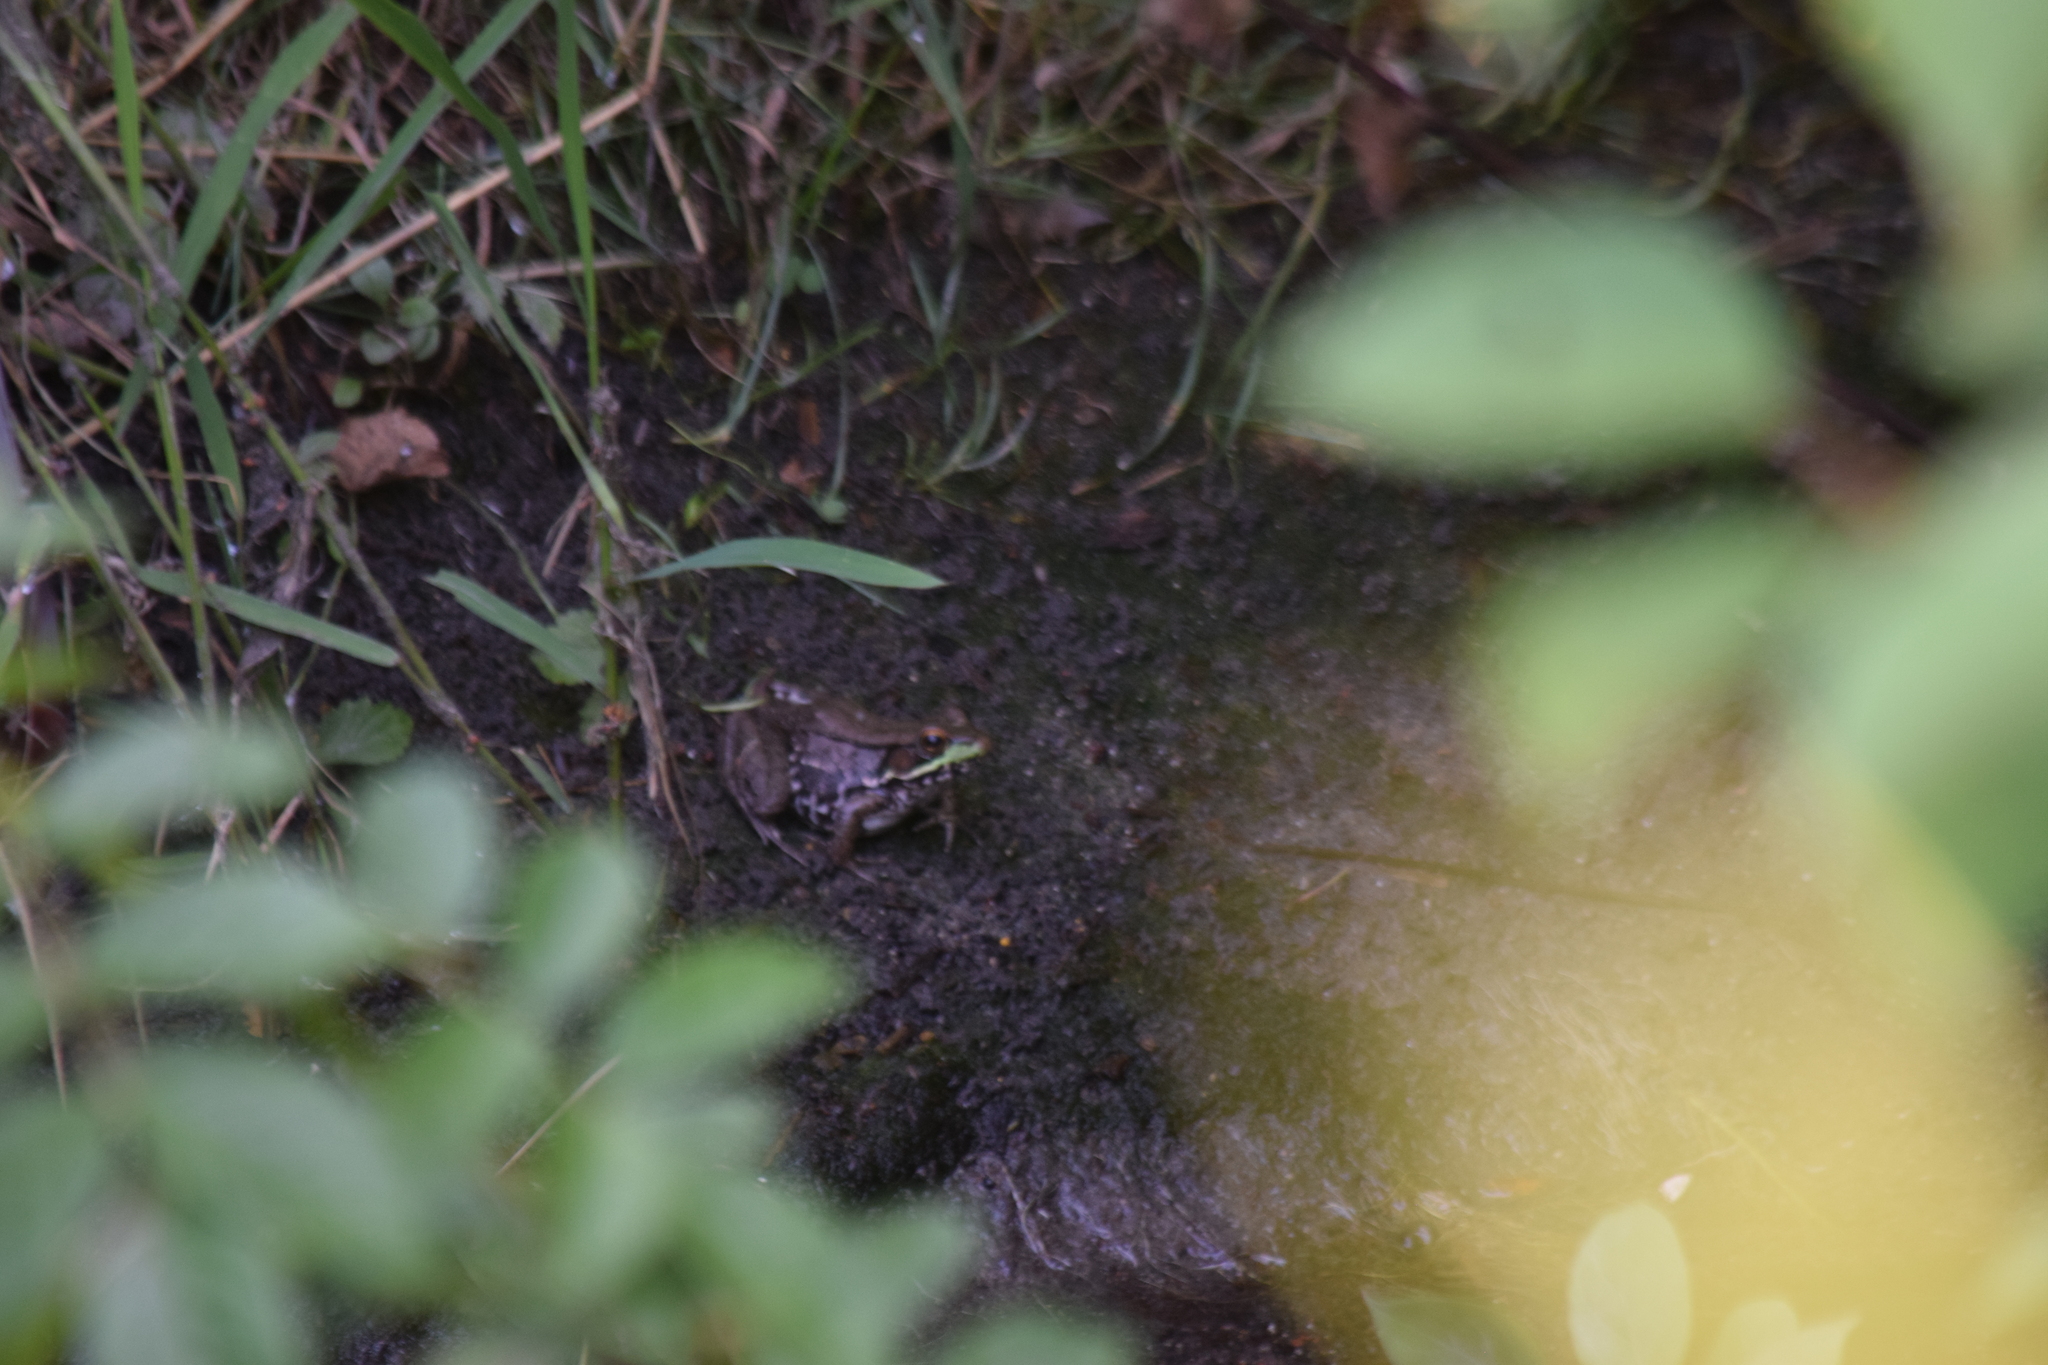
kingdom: Animalia
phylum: Chordata
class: Amphibia
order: Anura
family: Ranidae
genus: Lithobates
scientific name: Lithobates clamitans
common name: Green frog
